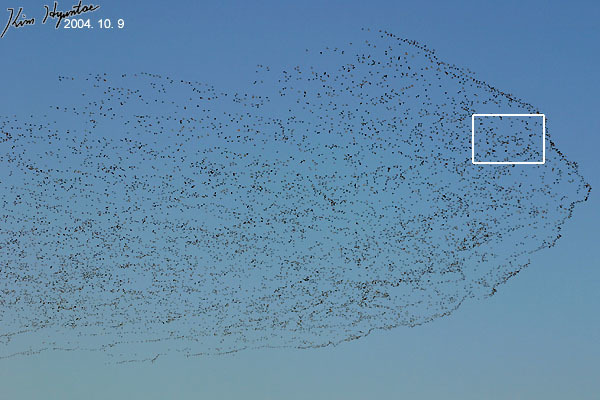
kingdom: Animalia
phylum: Chordata
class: Aves
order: Anseriformes
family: Anatidae
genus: Sibirionetta
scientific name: Sibirionetta formosa
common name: Baikal teal
